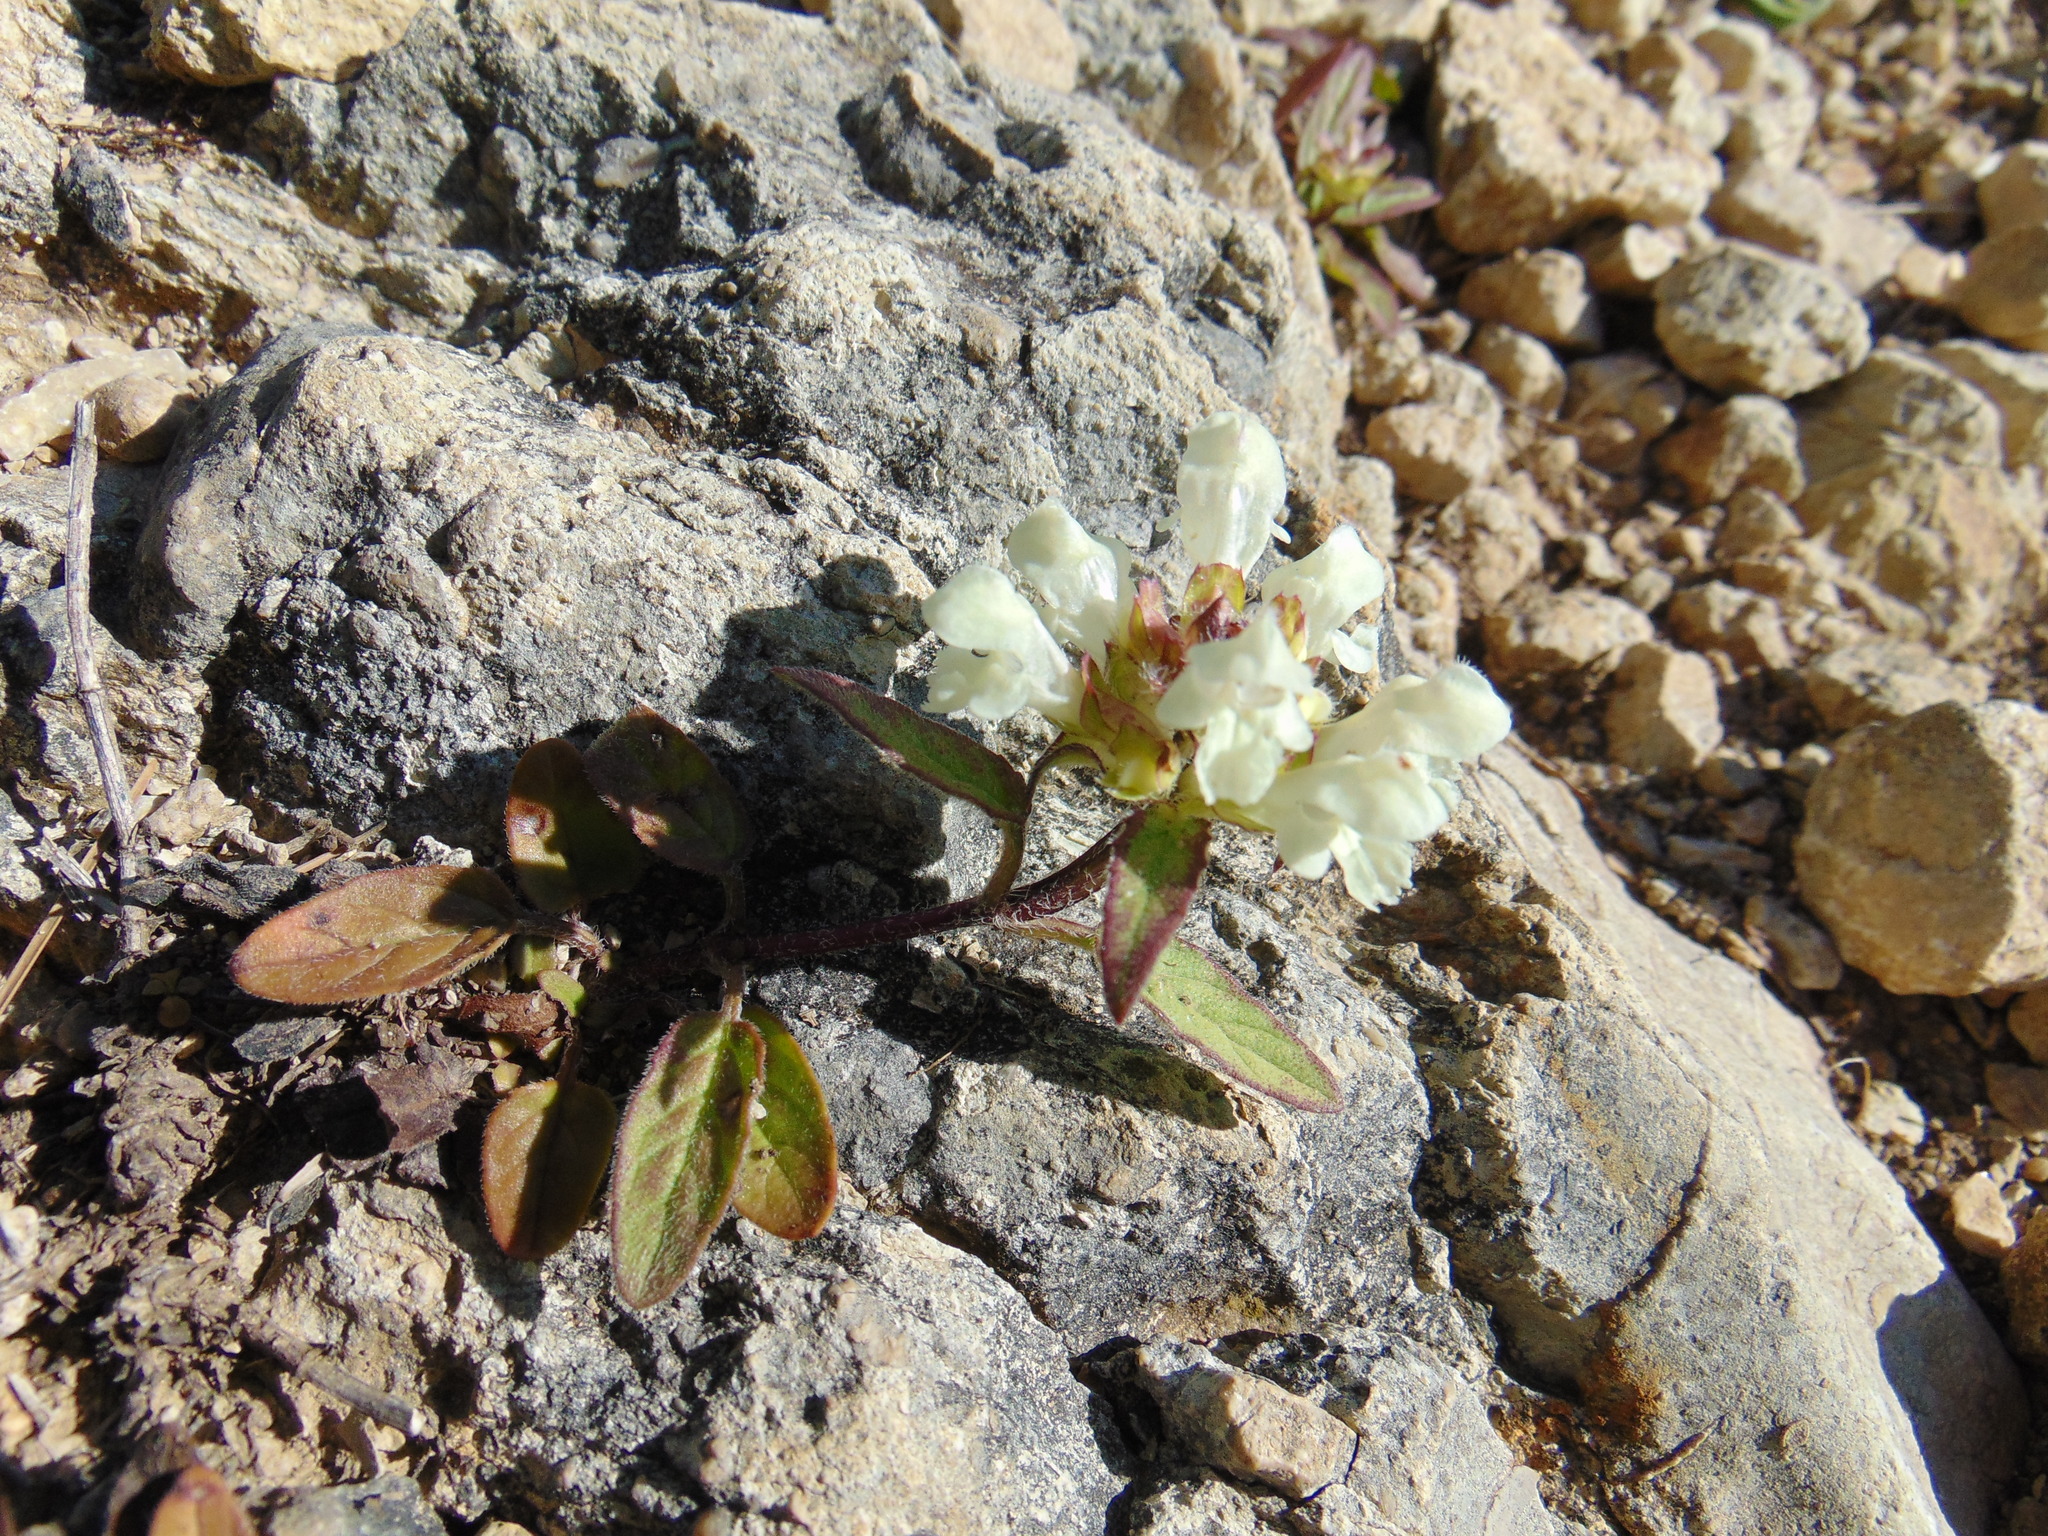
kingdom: Plantae
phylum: Tracheophyta
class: Magnoliopsida
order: Lamiales
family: Lamiaceae
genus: Prunella
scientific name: Prunella laciniata
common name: Cut-leaved selfheal
